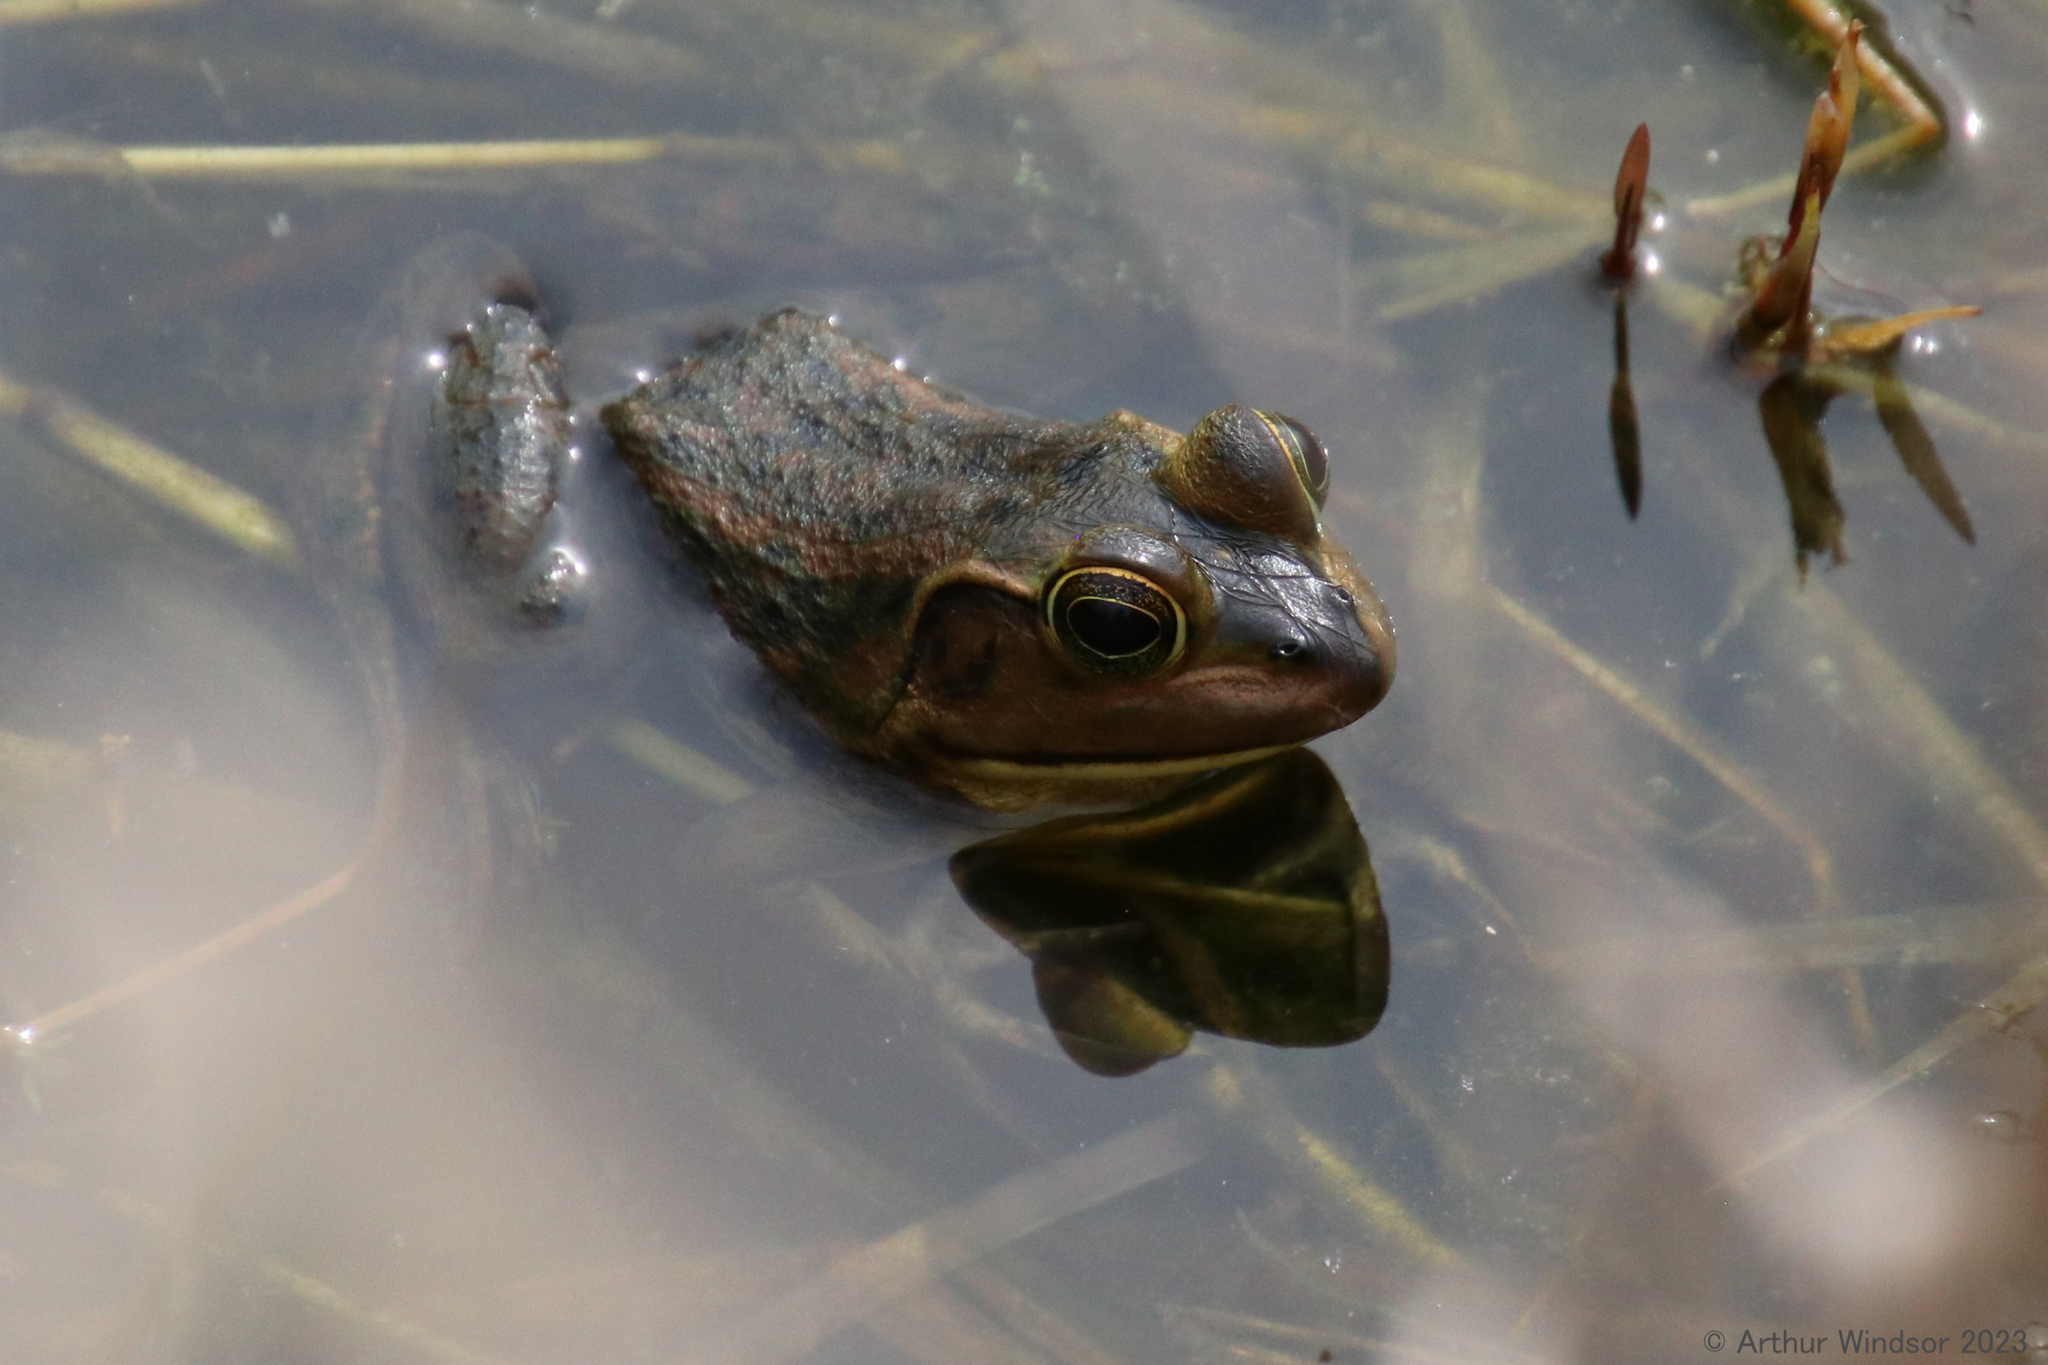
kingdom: Animalia
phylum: Chordata
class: Amphibia
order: Anura
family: Ranidae
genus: Lithobates
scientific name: Lithobates grylio
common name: Pig frog
